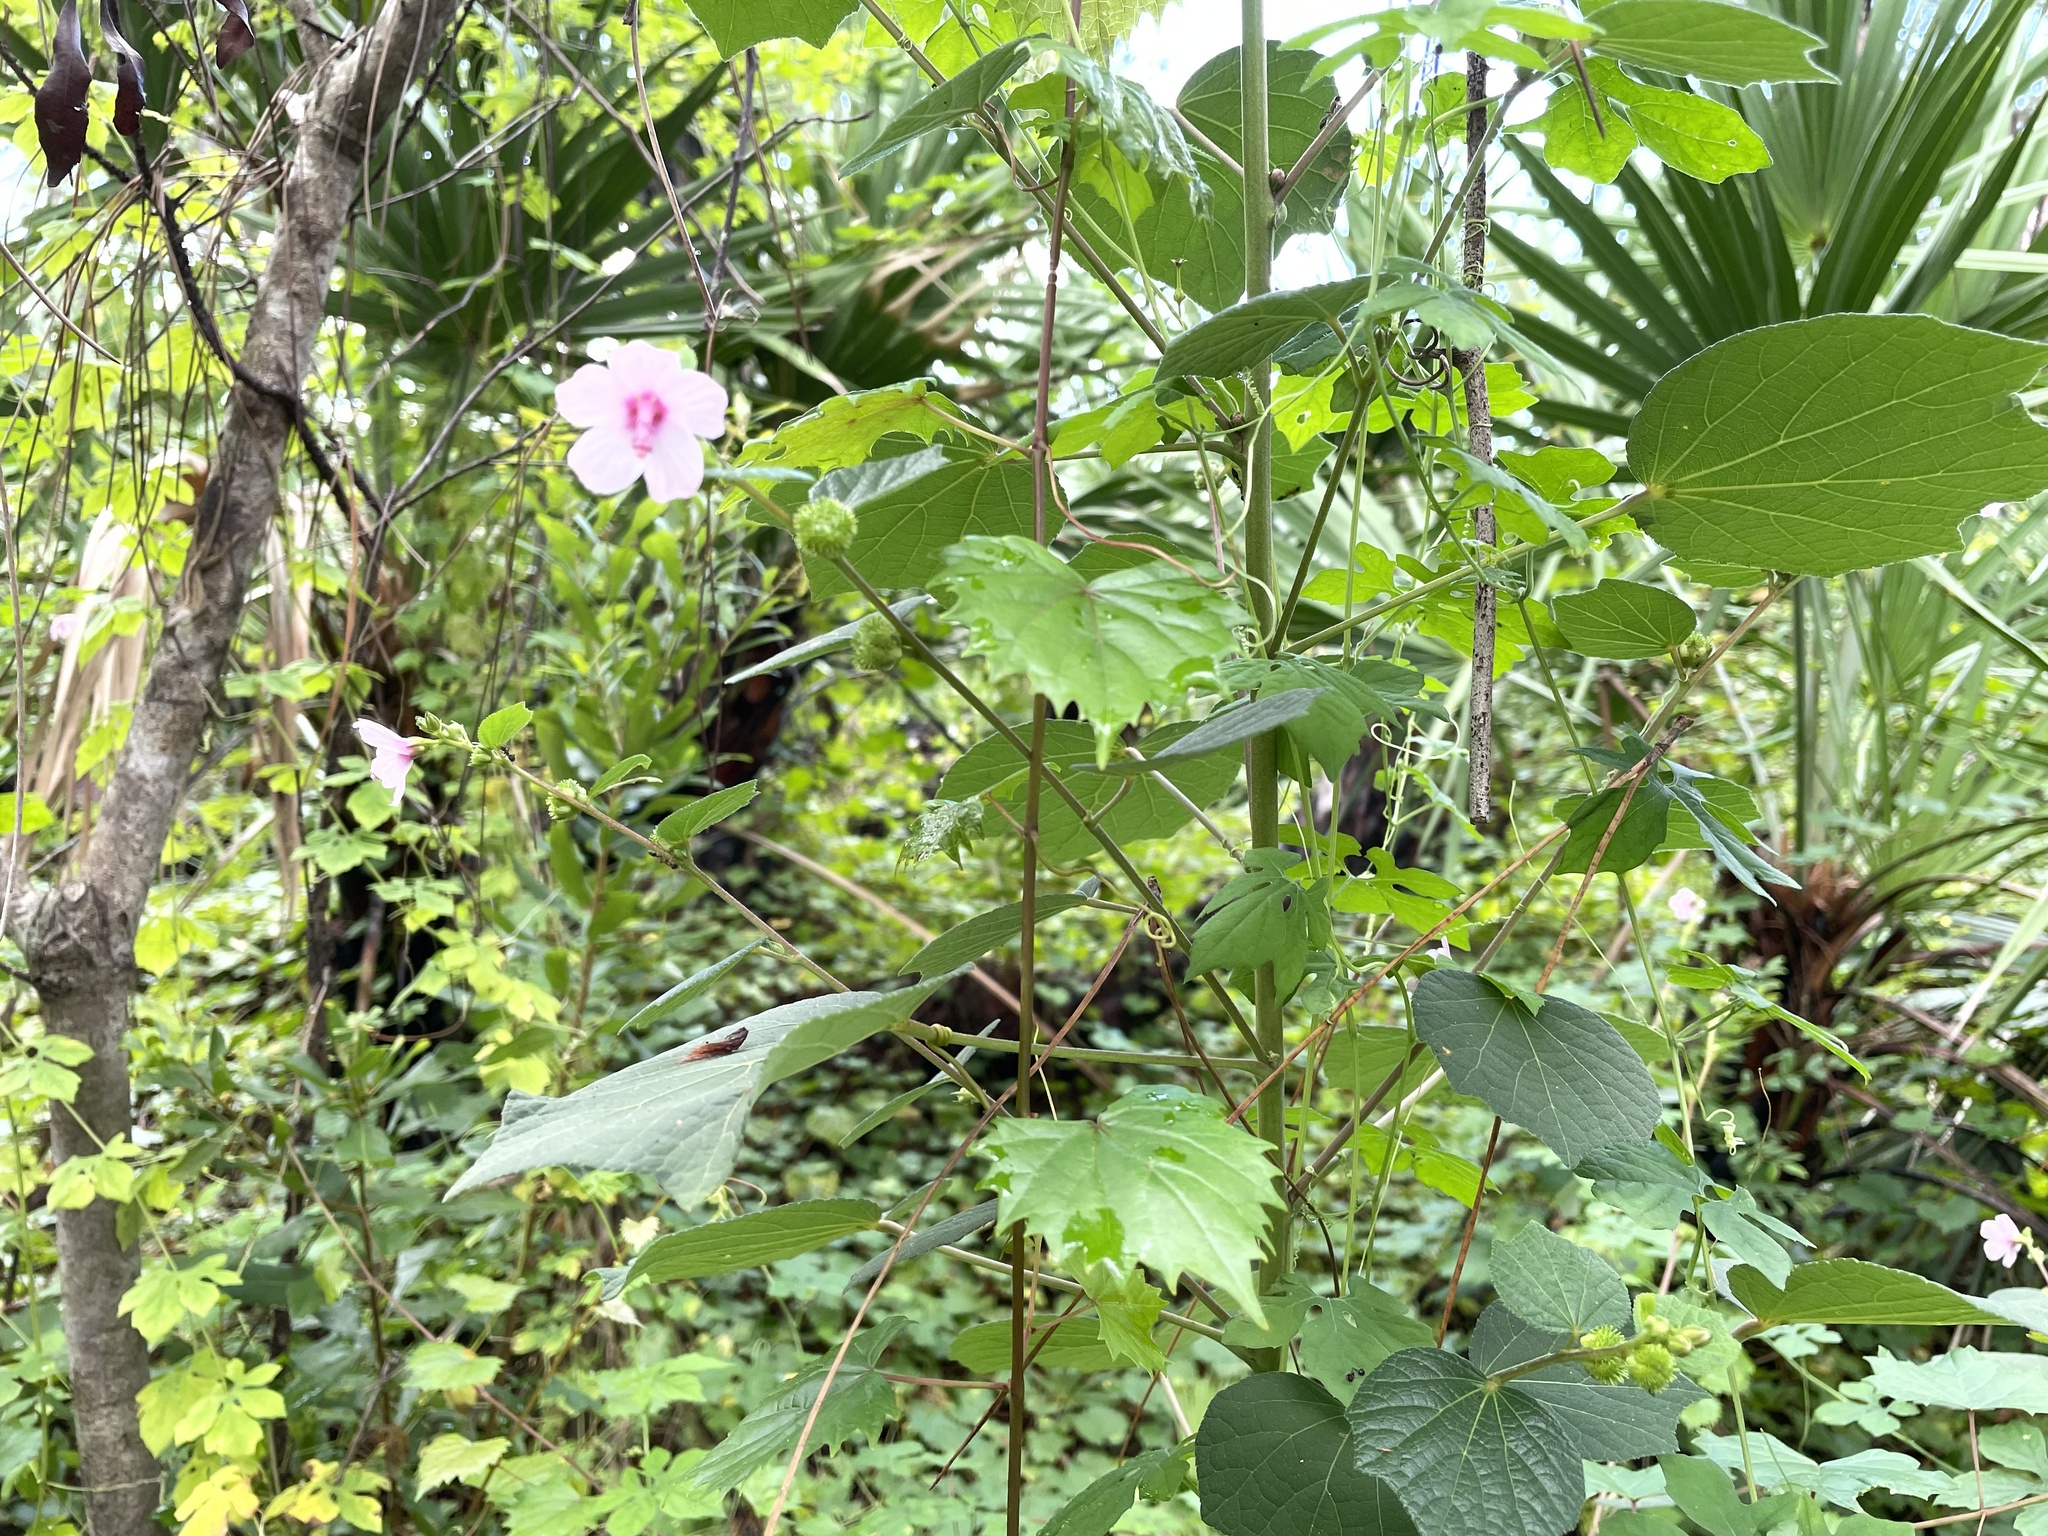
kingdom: Plantae
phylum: Tracheophyta
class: Magnoliopsida
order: Malvales
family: Malvaceae
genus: Urena
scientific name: Urena lobata
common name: Caesarweed
